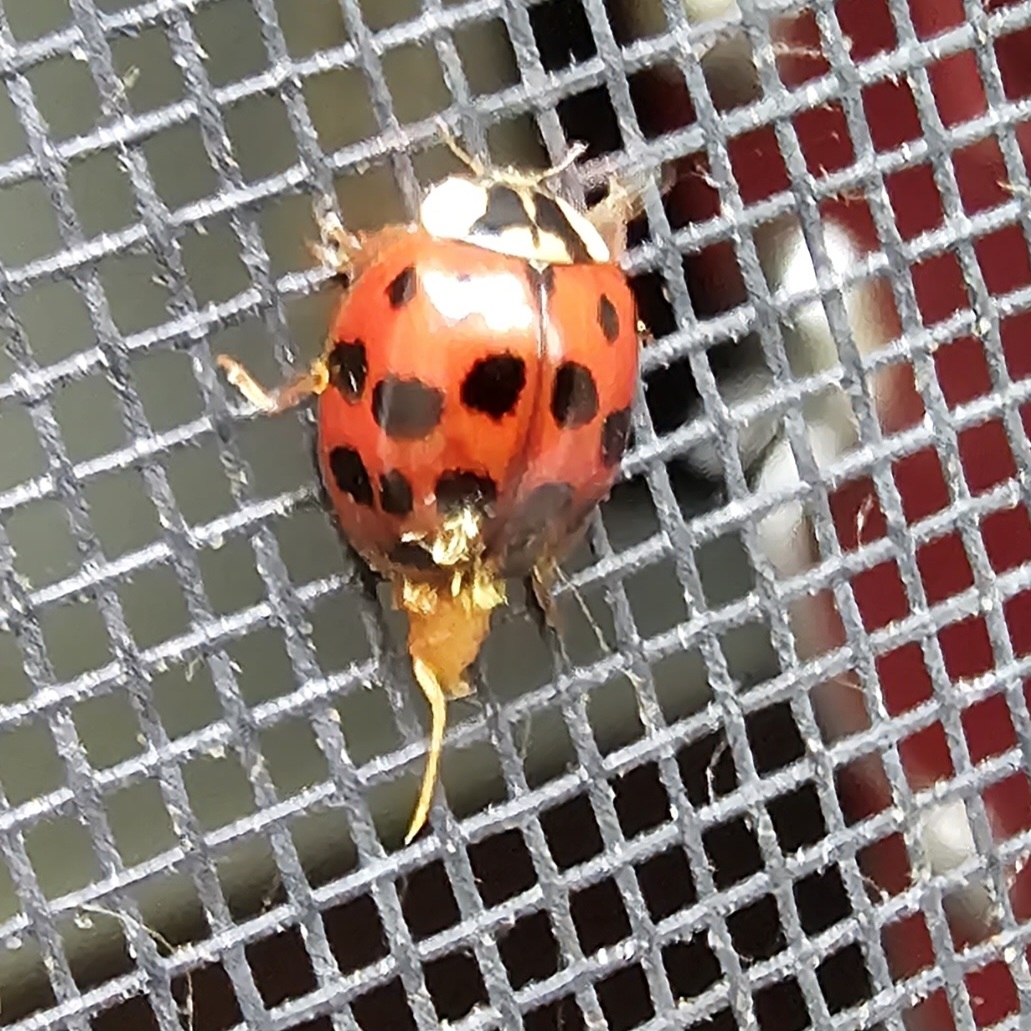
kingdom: Animalia
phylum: Arthropoda
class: Insecta
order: Coleoptera
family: Coccinellidae
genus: Harmonia
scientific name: Harmonia axyridis
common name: Harlequin ladybird
